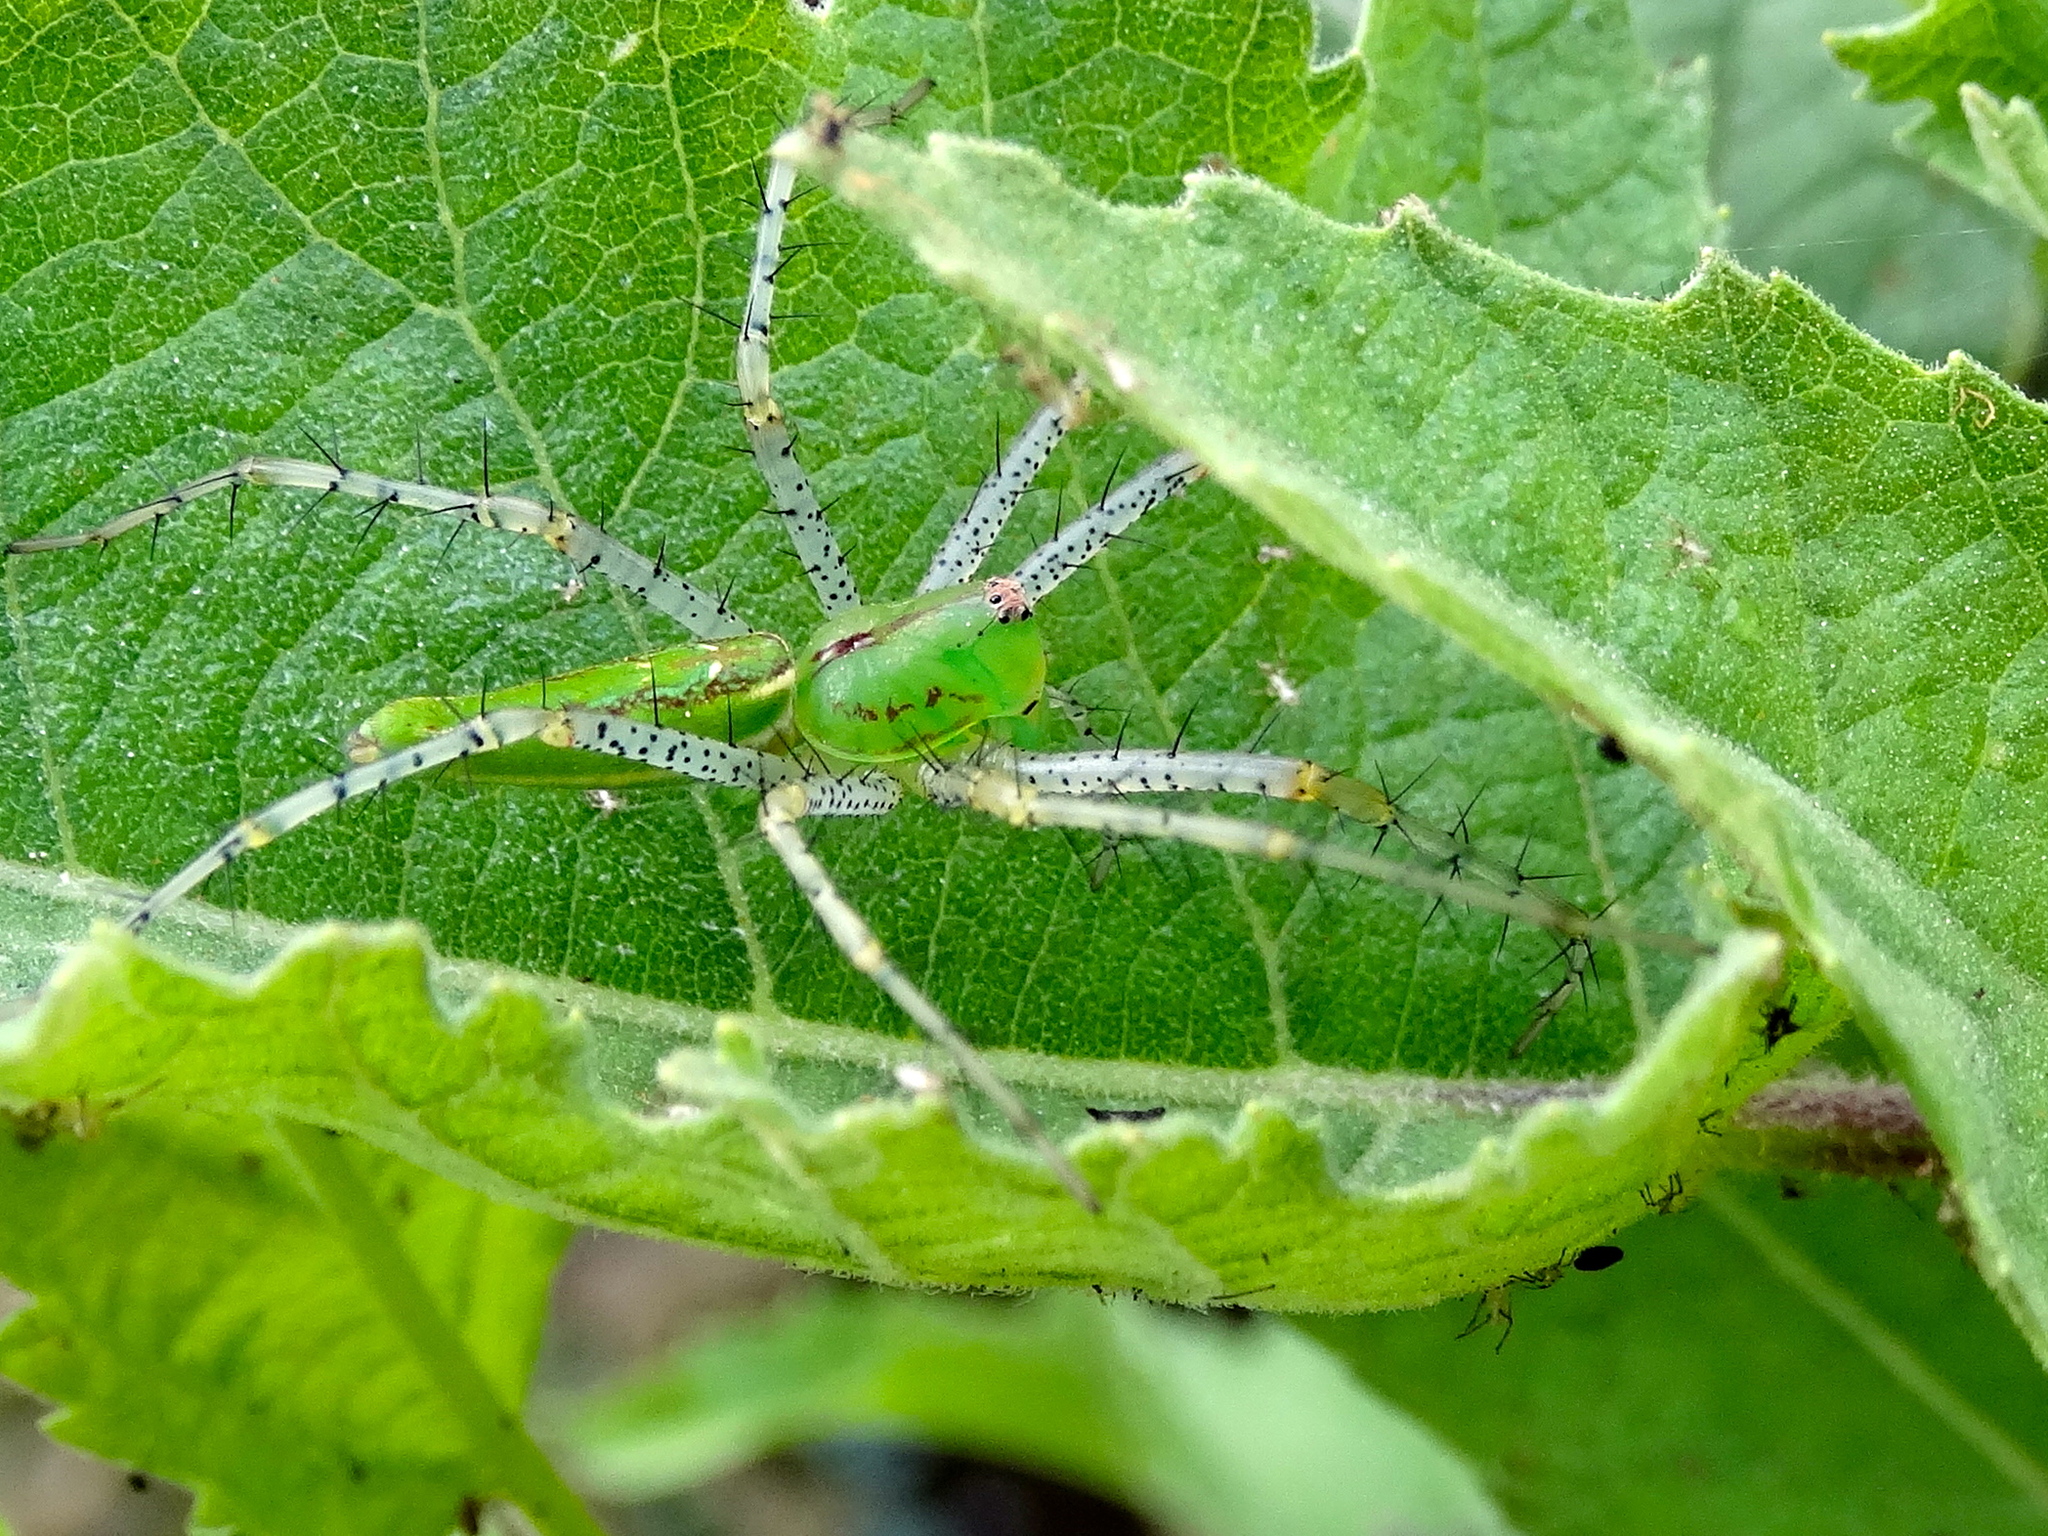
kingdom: Animalia
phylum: Arthropoda
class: Arachnida
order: Araneae
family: Oxyopidae
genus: Peucetia
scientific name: Peucetia viridans
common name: Lynx spiders
